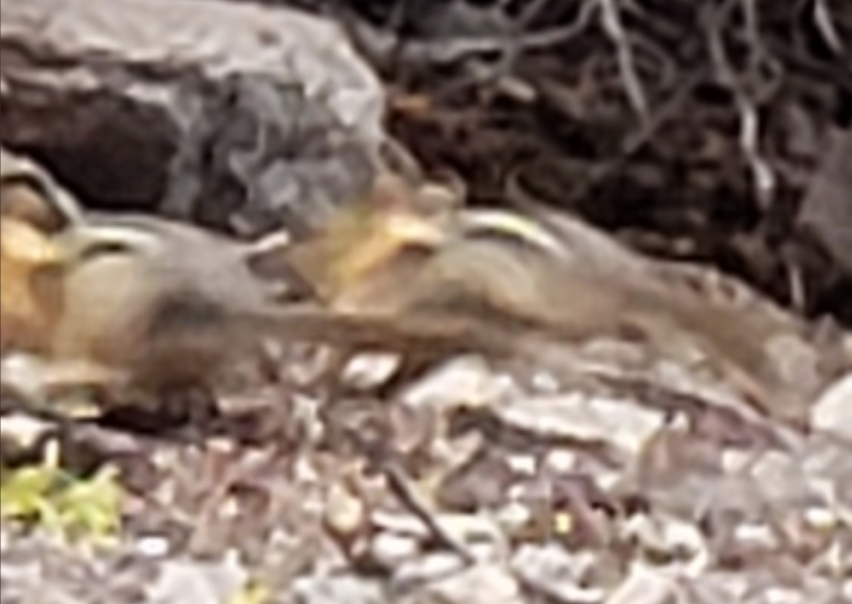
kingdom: Animalia
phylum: Chordata
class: Mammalia
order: Rodentia
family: Sciuridae
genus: Callospermophilus
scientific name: Callospermophilus lateralis
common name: Golden-mantled ground squirrel
